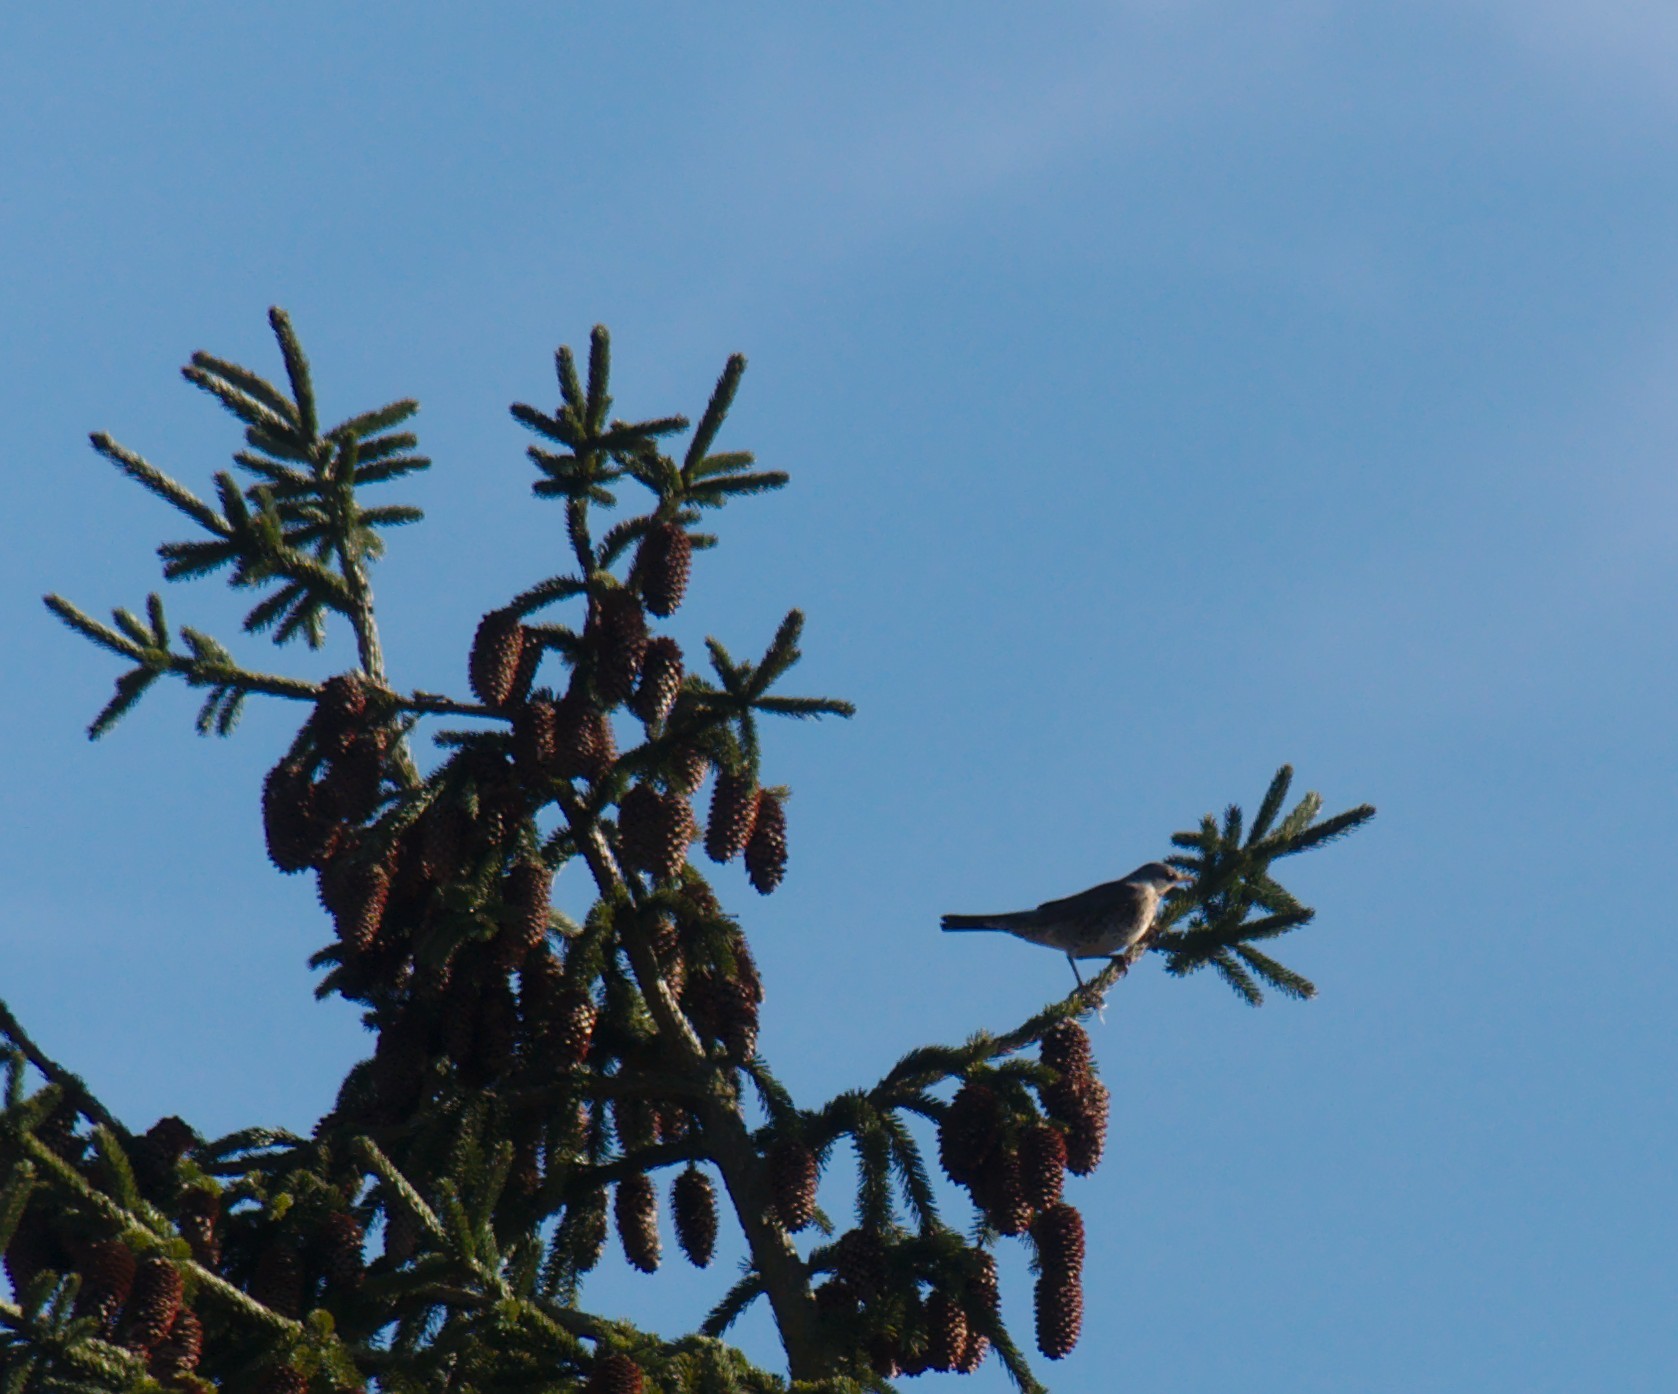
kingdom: Animalia
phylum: Chordata
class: Aves
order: Passeriformes
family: Turdidae
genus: Turdus
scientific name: Turdus pilaris
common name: Fieldfare
